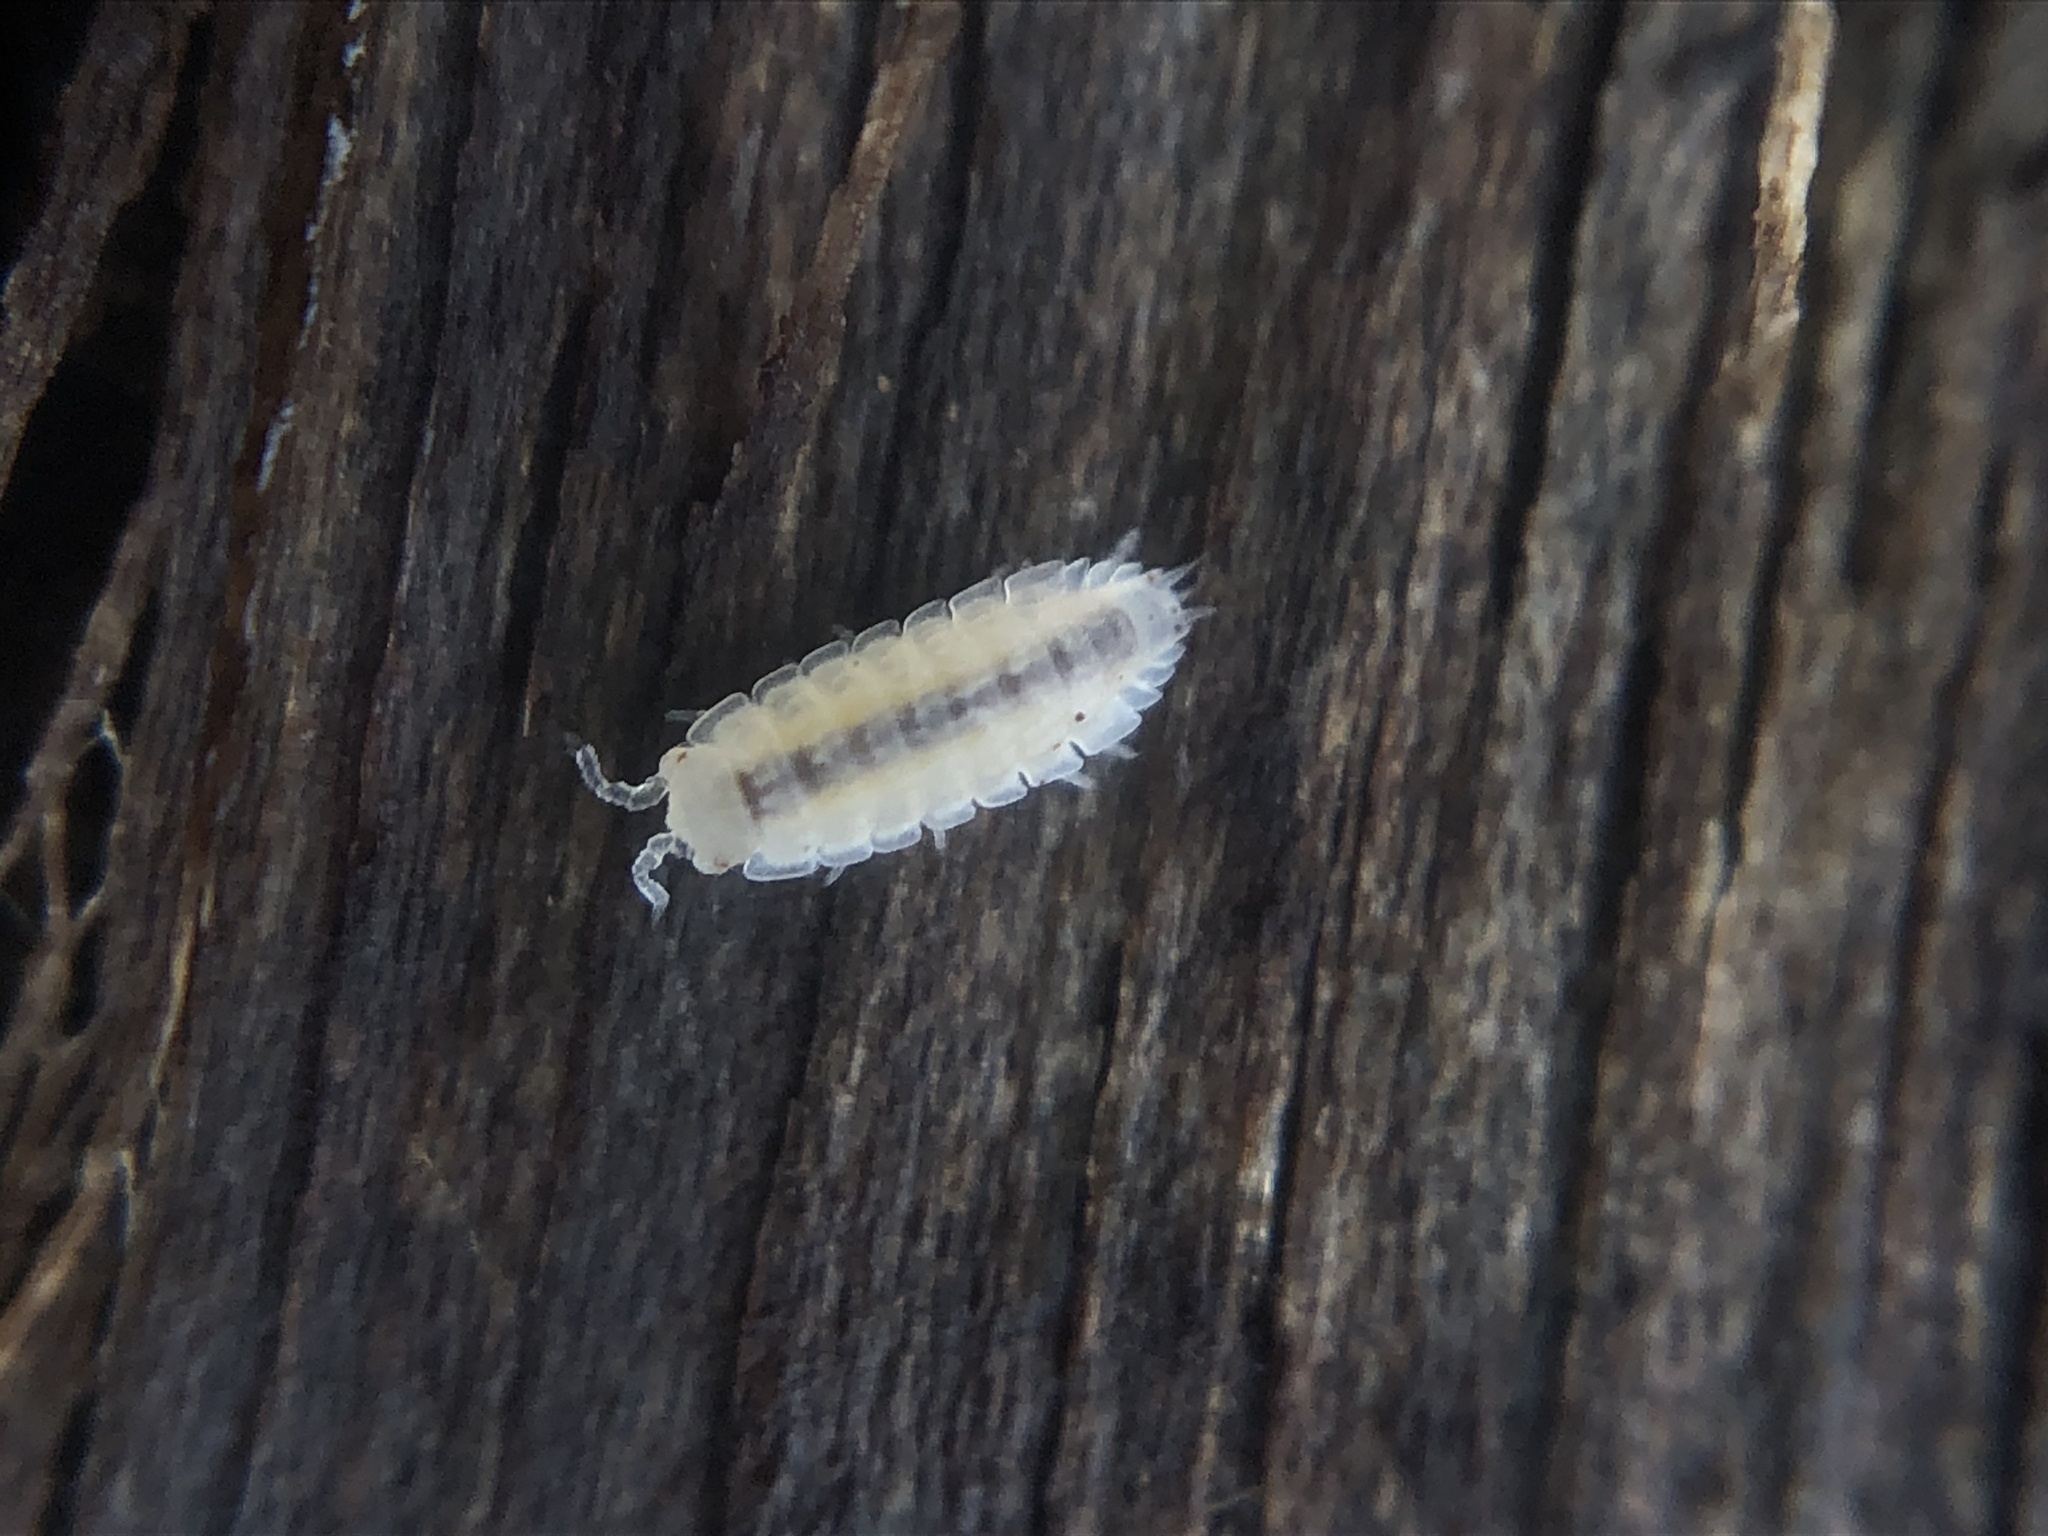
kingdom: Animalia
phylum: Arthropoda
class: Malacostraca
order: Isopoda
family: Trichoniscidae
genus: Haplophthalmus
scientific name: Haplophthalmus danicus
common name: Pillbug
